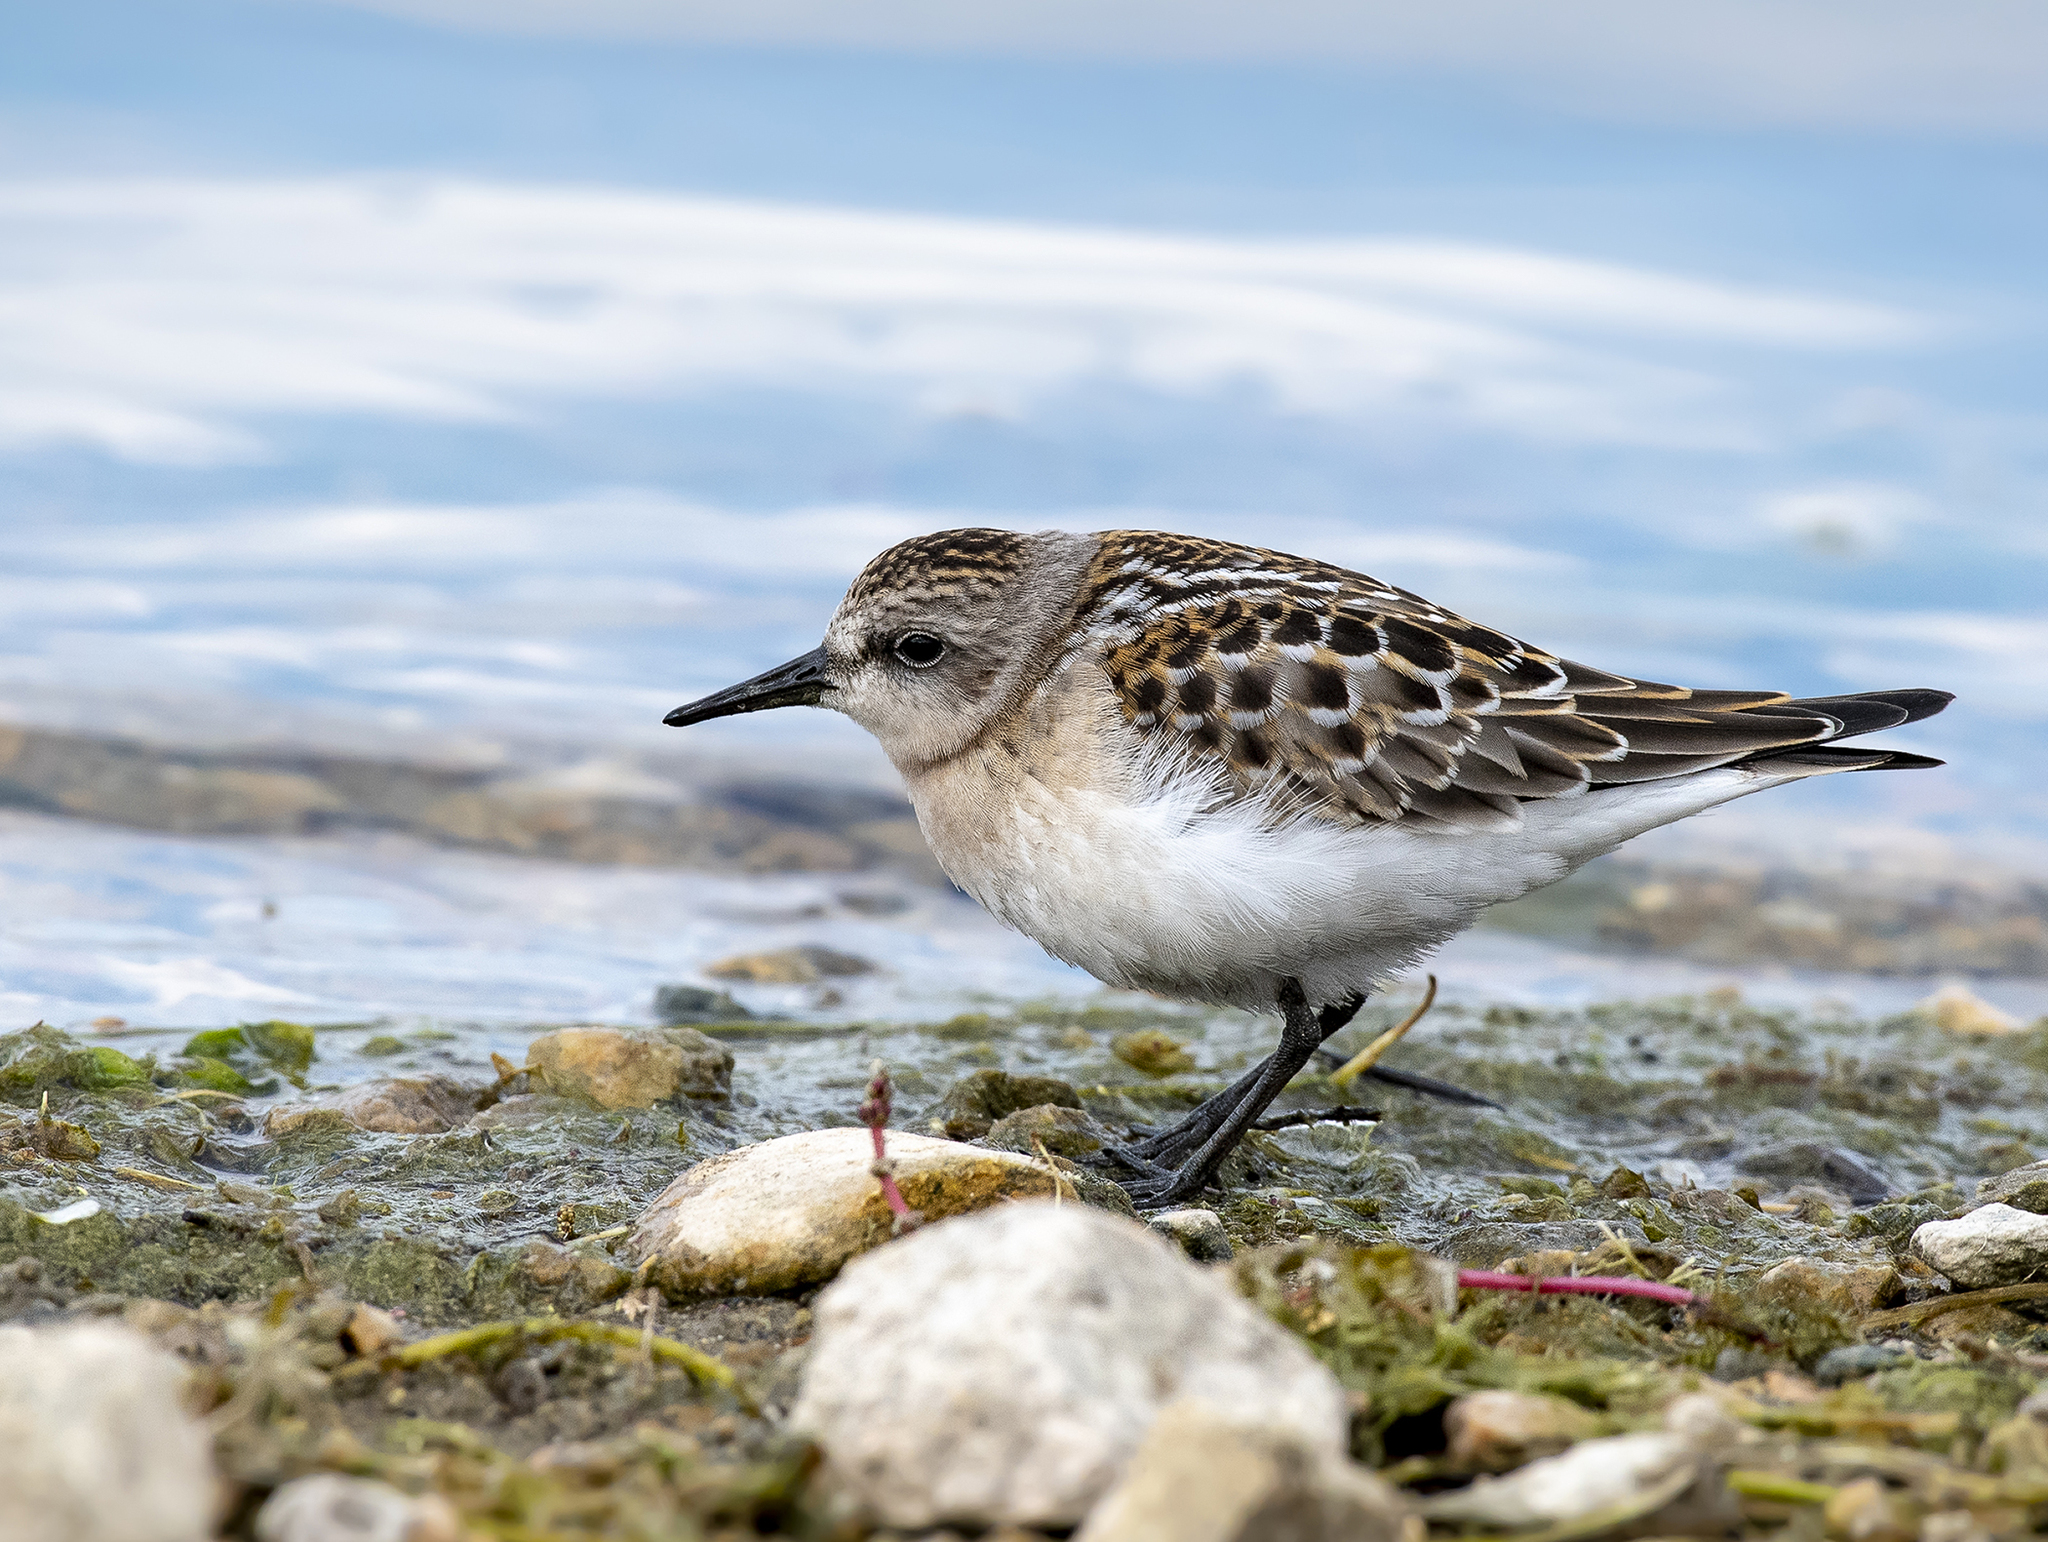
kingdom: Animalia
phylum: Chordata
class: Aves
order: Charadriiformes
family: Scolopacidae
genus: Calidris
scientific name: Calidris ruficollis
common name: Red-necked stint
